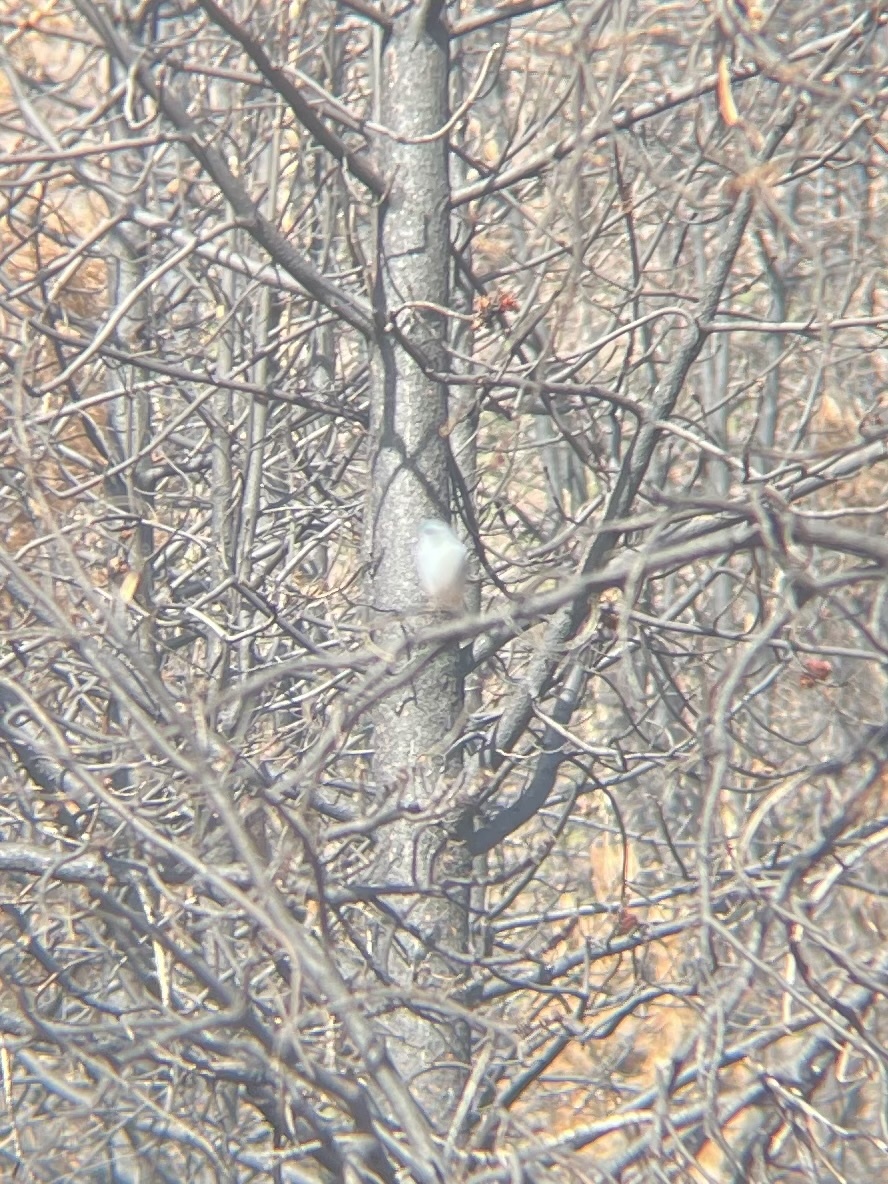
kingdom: Animalia
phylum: Chordata
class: Aves
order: Passeriformes
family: Turdidae
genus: Sialia
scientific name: Sialia currucoides
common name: Mountain bluebird
